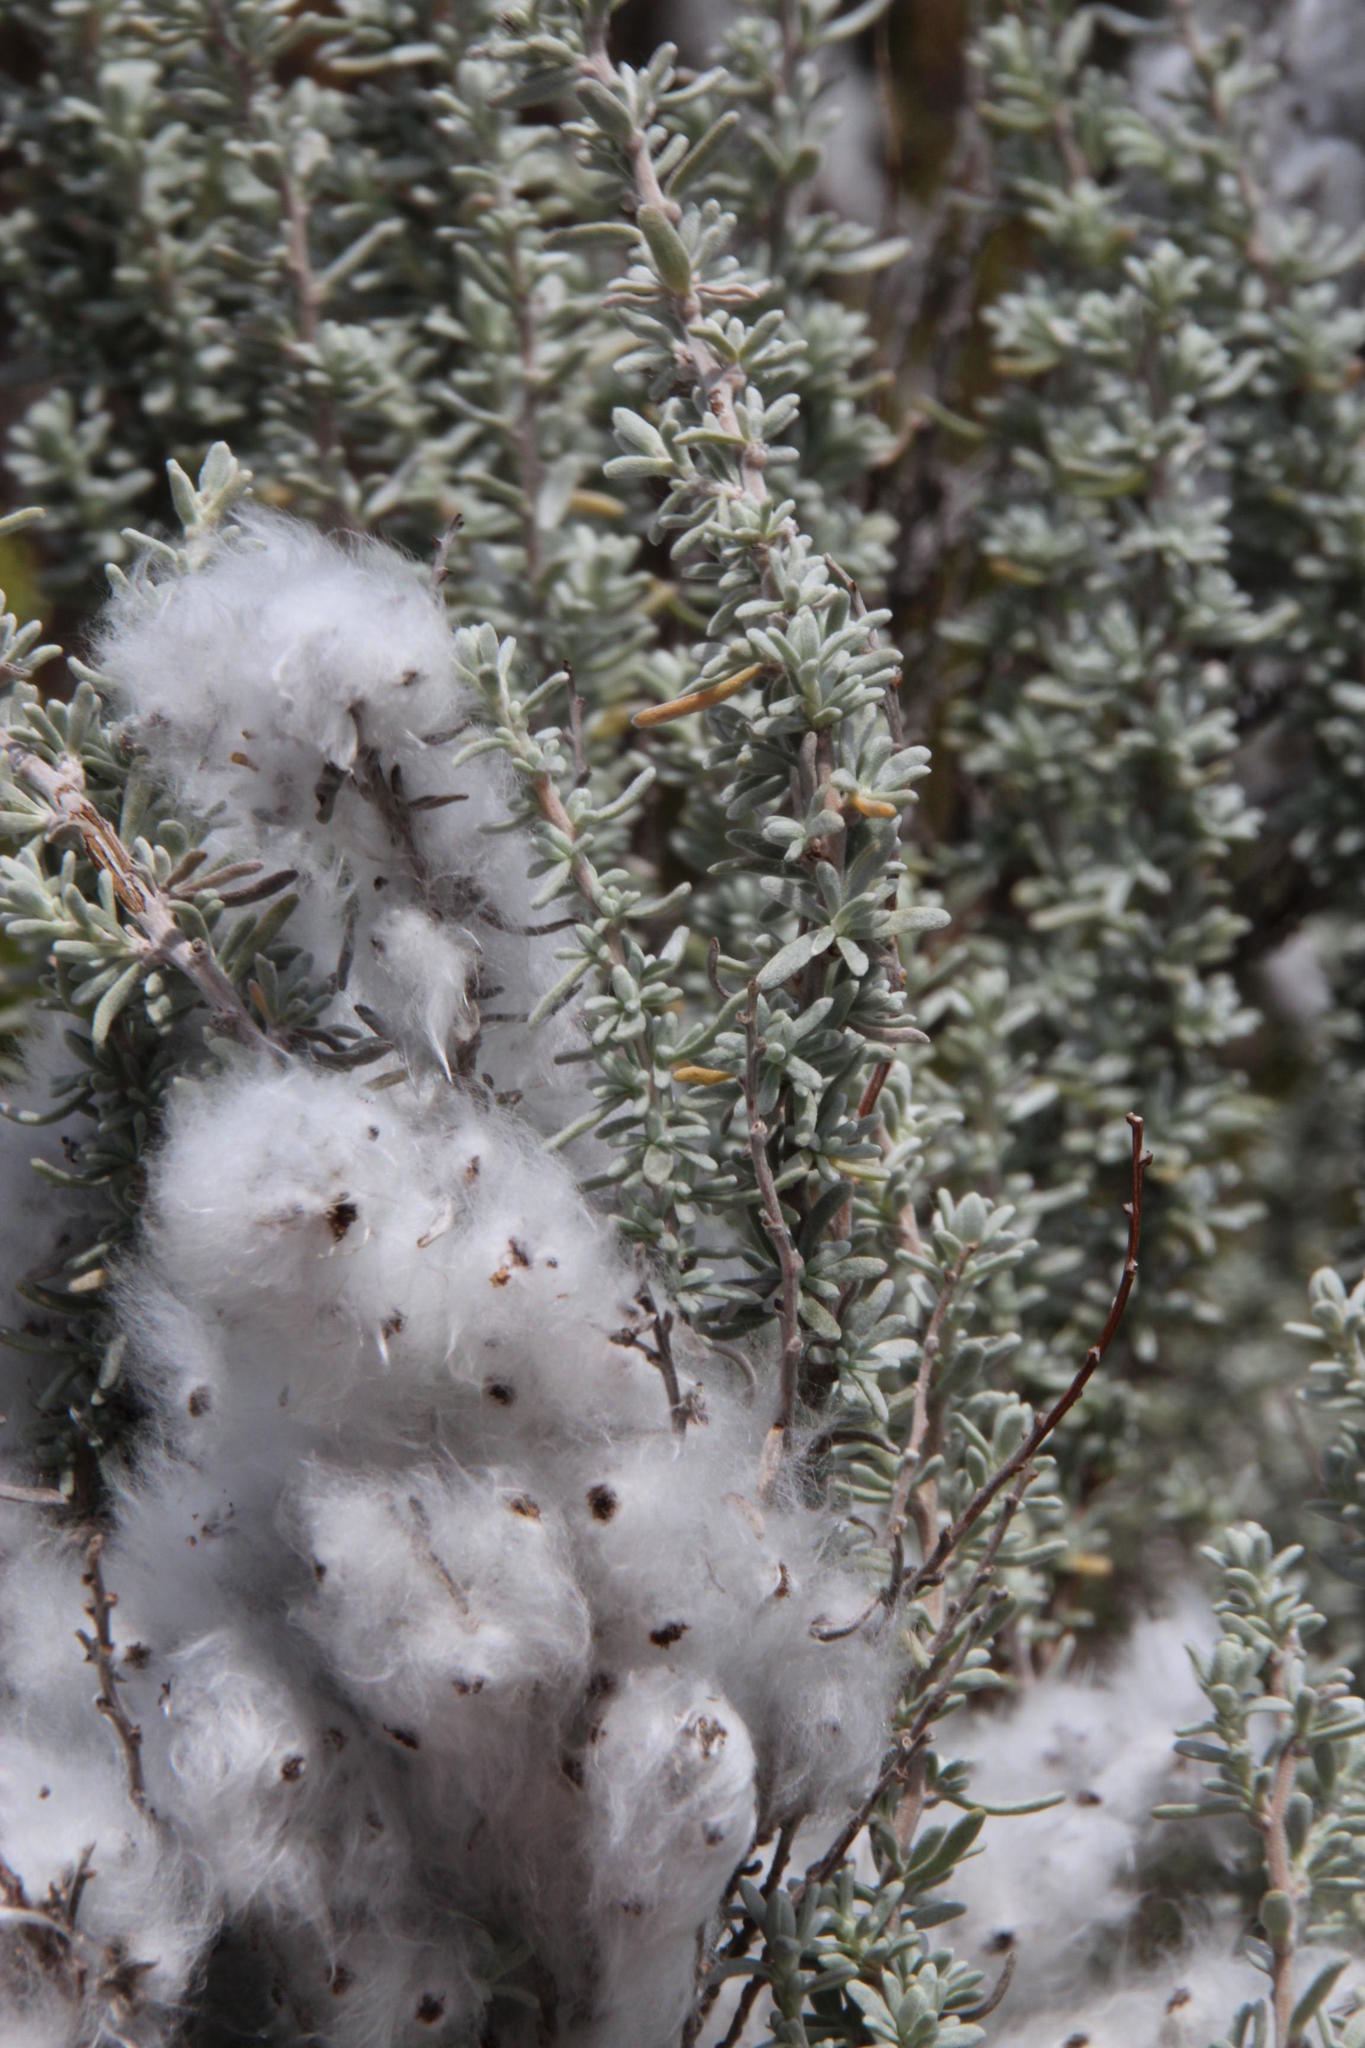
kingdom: Plantae
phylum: Tracheophyta
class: Magnoliopsida
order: Asterales
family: Asteraceae
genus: Eriocephalus
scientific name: Eriocephalus racemosus
